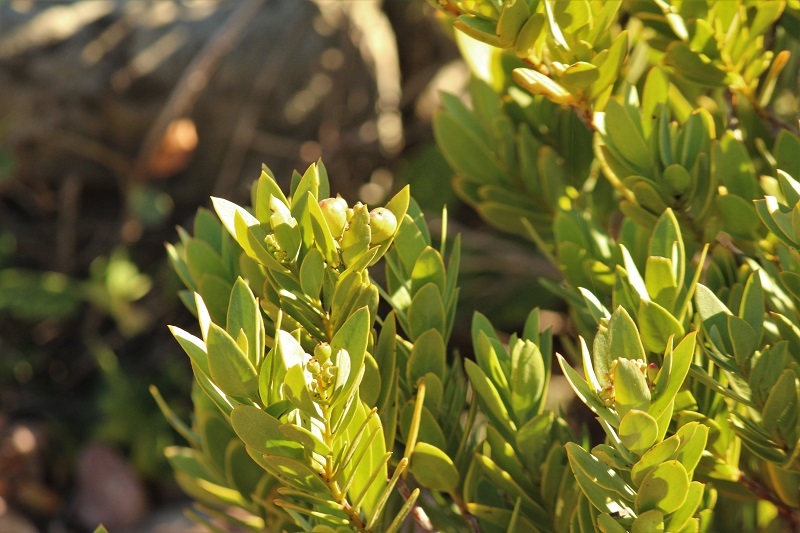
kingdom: Plantae
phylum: Tracheophyta
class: Magnoliopsida
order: Santalales
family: Santalaceae
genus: Osyris
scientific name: Osyris compressa
